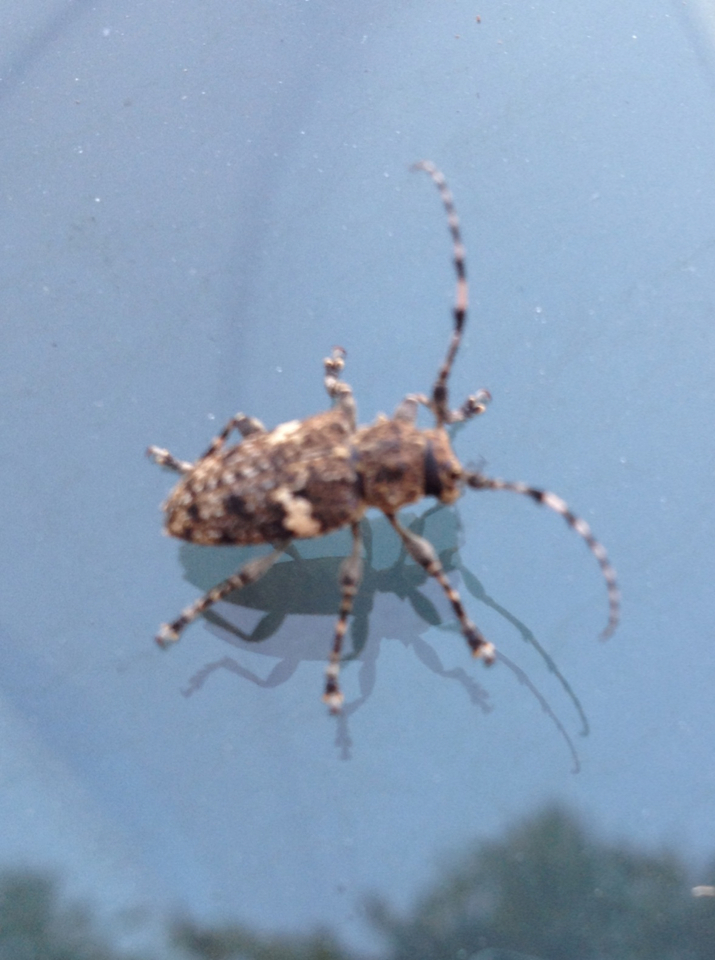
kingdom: Animalia
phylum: Arthropoda
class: Insecta
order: Coleoptera
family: Cerambycidae
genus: Acanthoderes
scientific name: Acanthoderes quadrigibba
